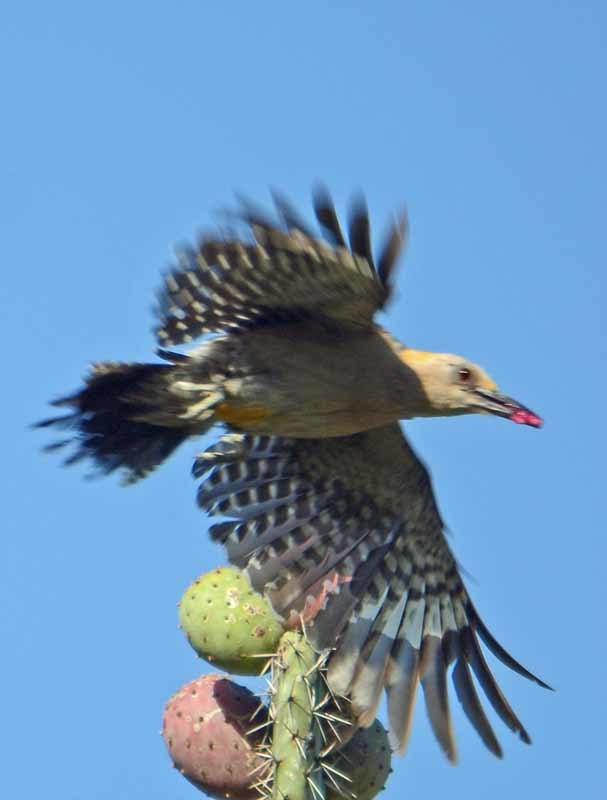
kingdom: Animalia
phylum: Chordata
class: Aves
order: Piciformes
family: Picidae
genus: Melanerpes
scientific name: Melanerpes aurifrons
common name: Golden-fronted woodpecker
